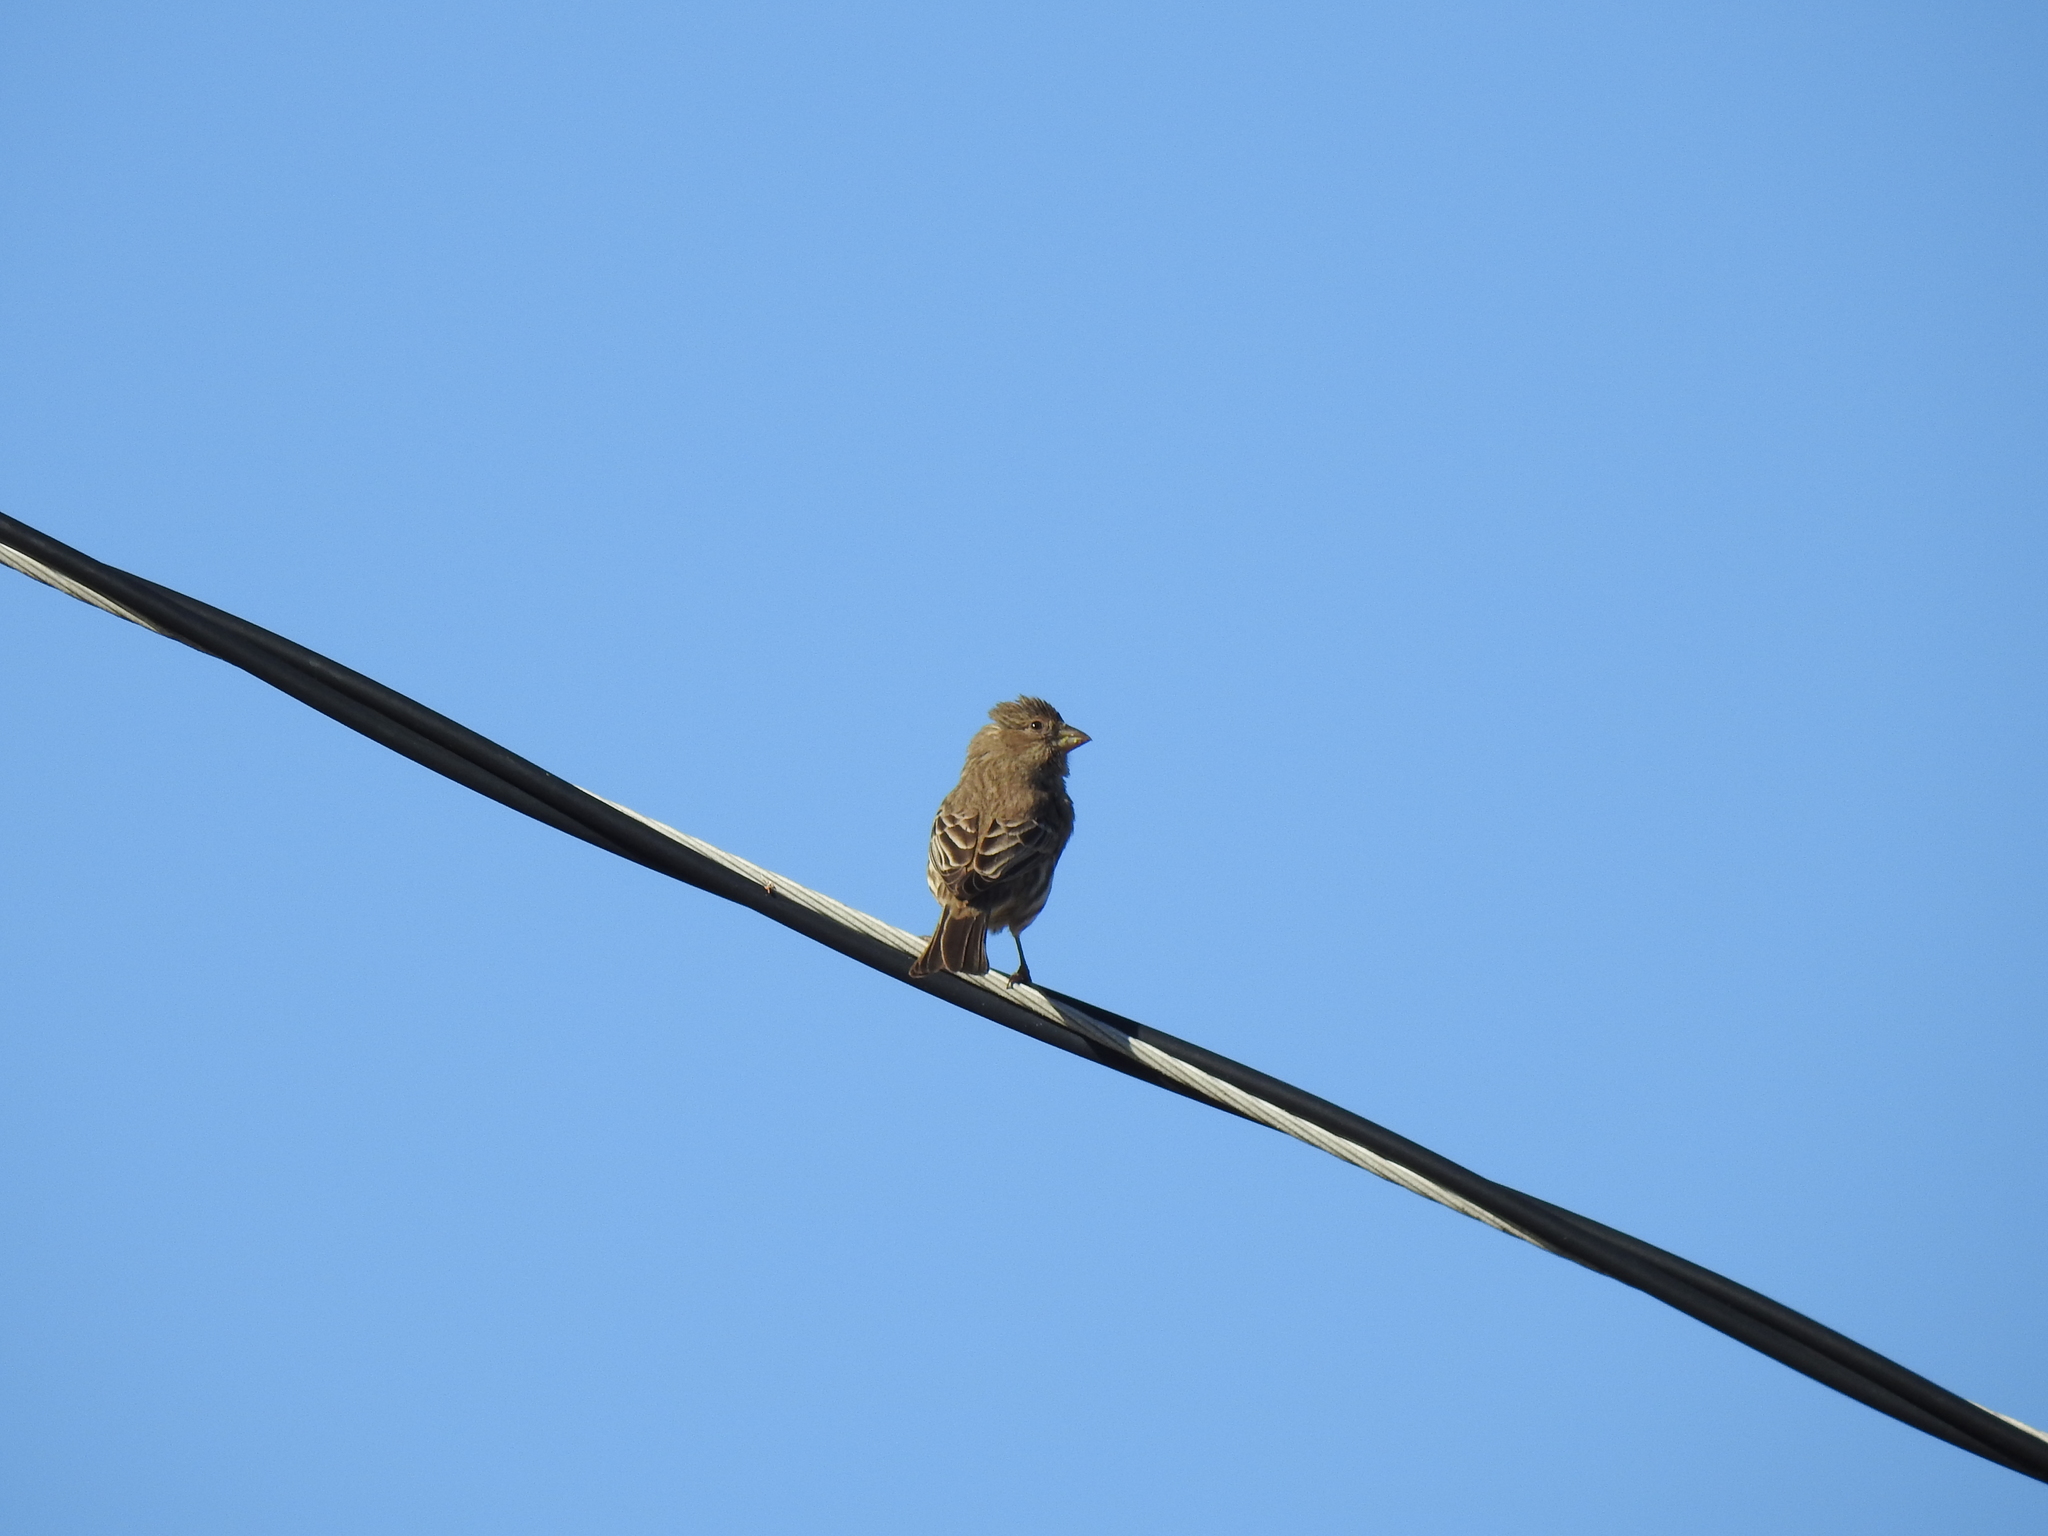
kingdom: Animalia
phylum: Chordata
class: Aves
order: Passeriformes
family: Fringillidae
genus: Haemorhous
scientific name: Haemorhous mexicanus
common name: House finch
